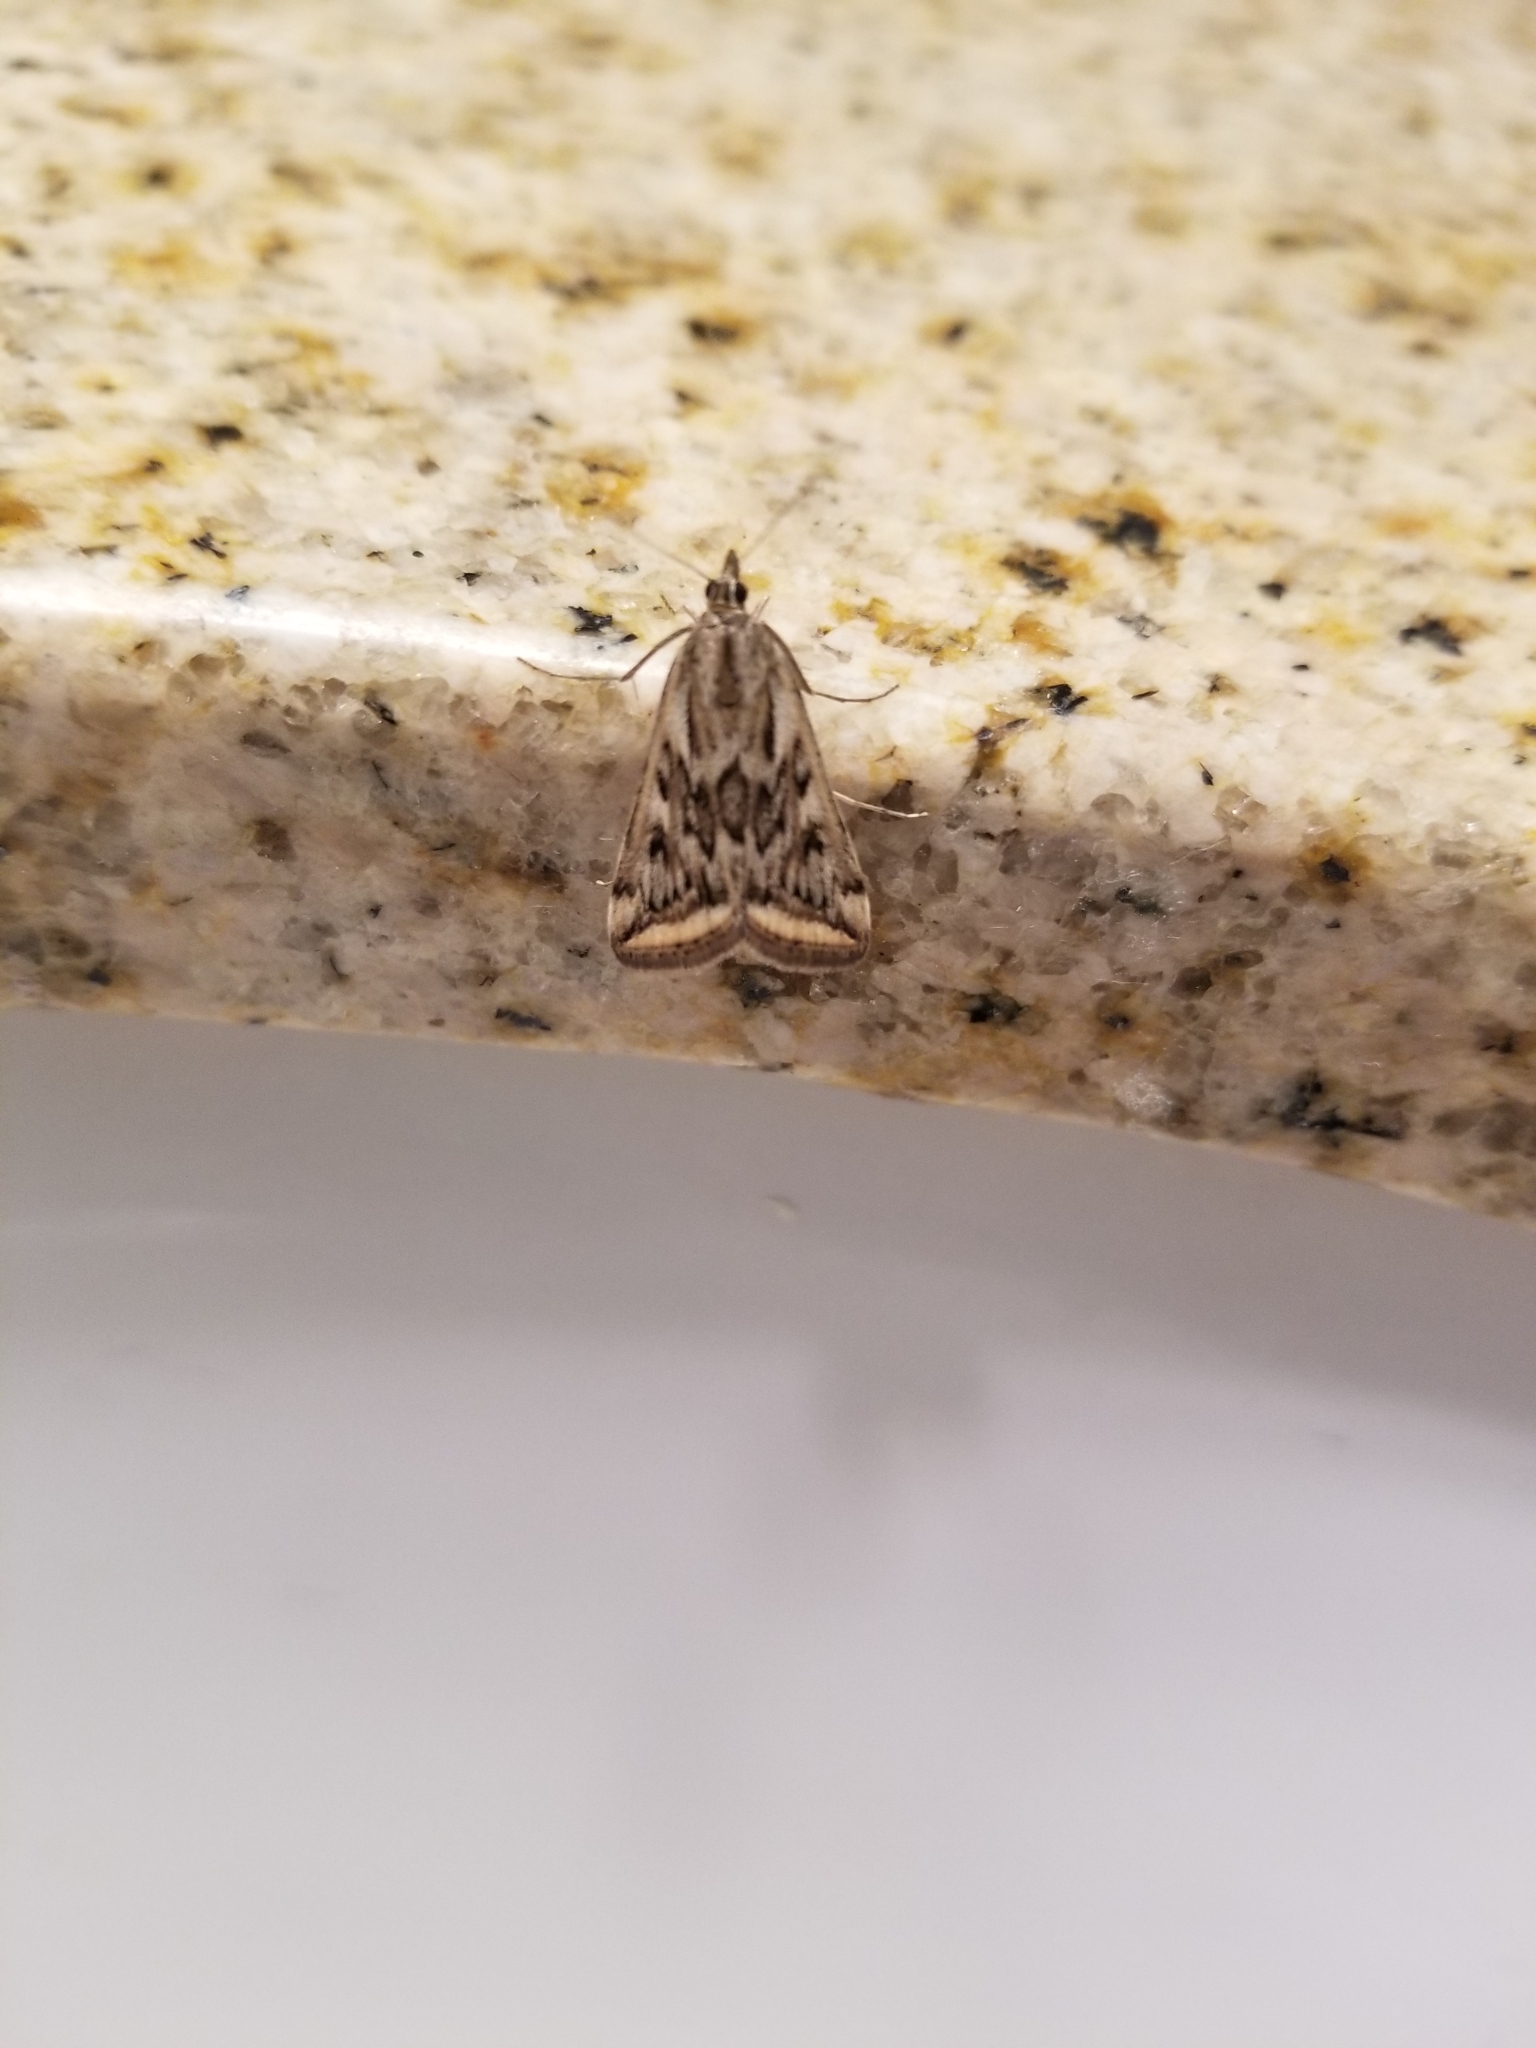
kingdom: Animalia
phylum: Arthropoda
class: Insecta
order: Lepidoptera
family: Crambidae
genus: Loxostege
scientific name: Loxostege cereralis
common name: Alfalfa webworm moth
